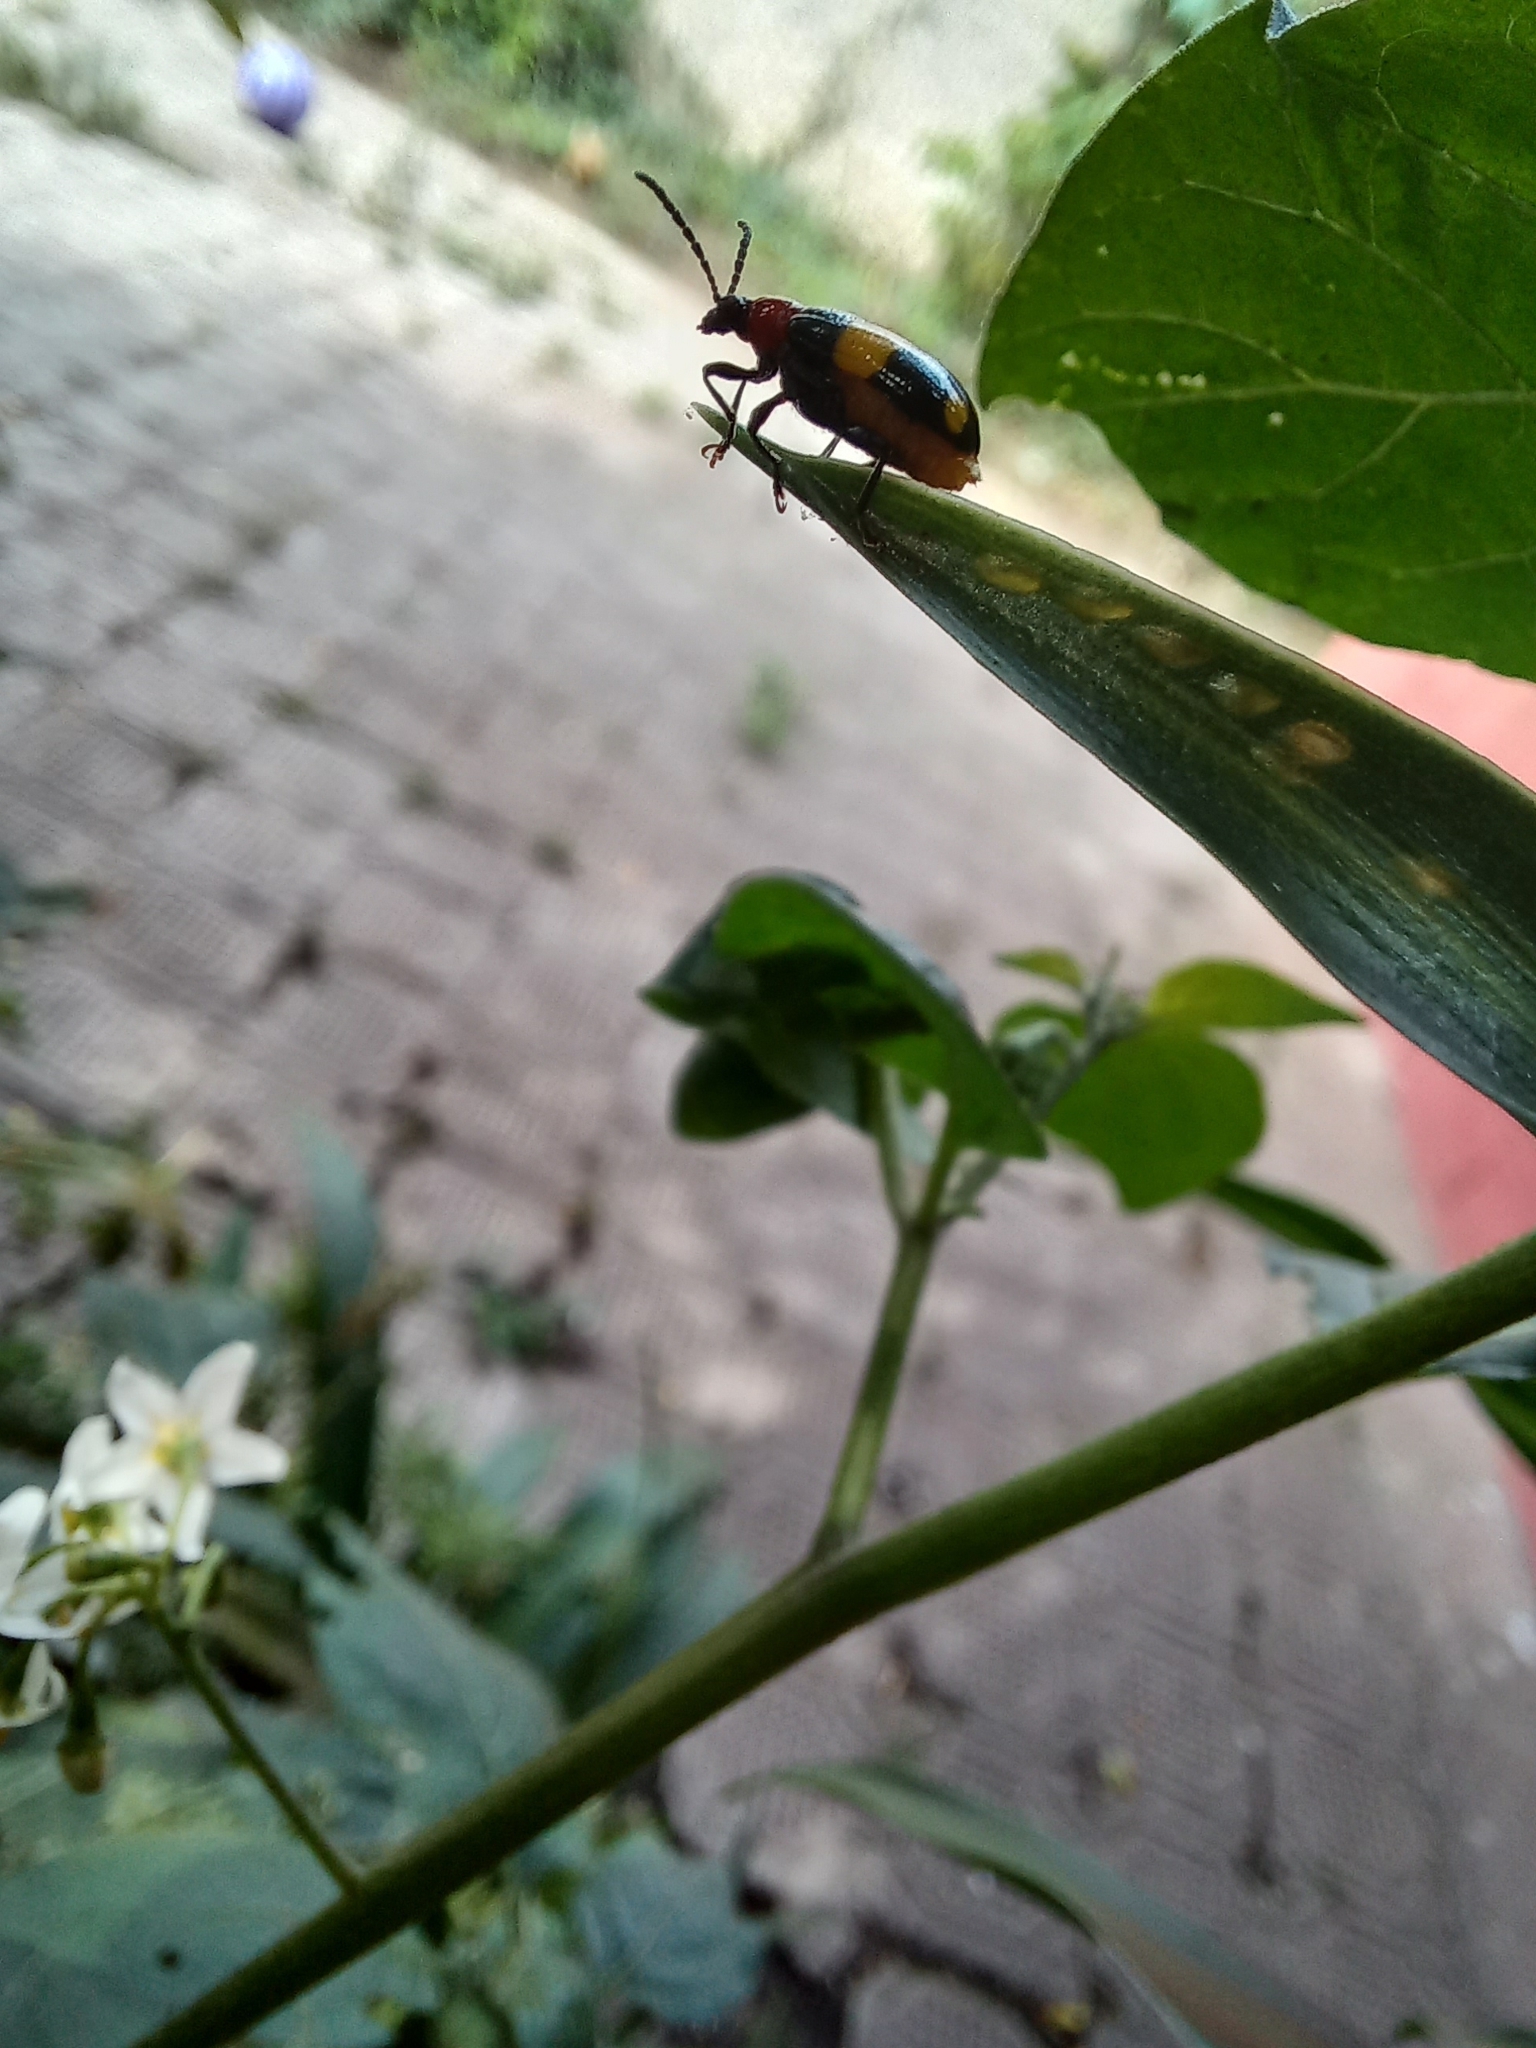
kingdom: Animalia
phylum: Arthropoda
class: Insecta
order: Coleoptera
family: Chrysomelidae
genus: Lema
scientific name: Lema
